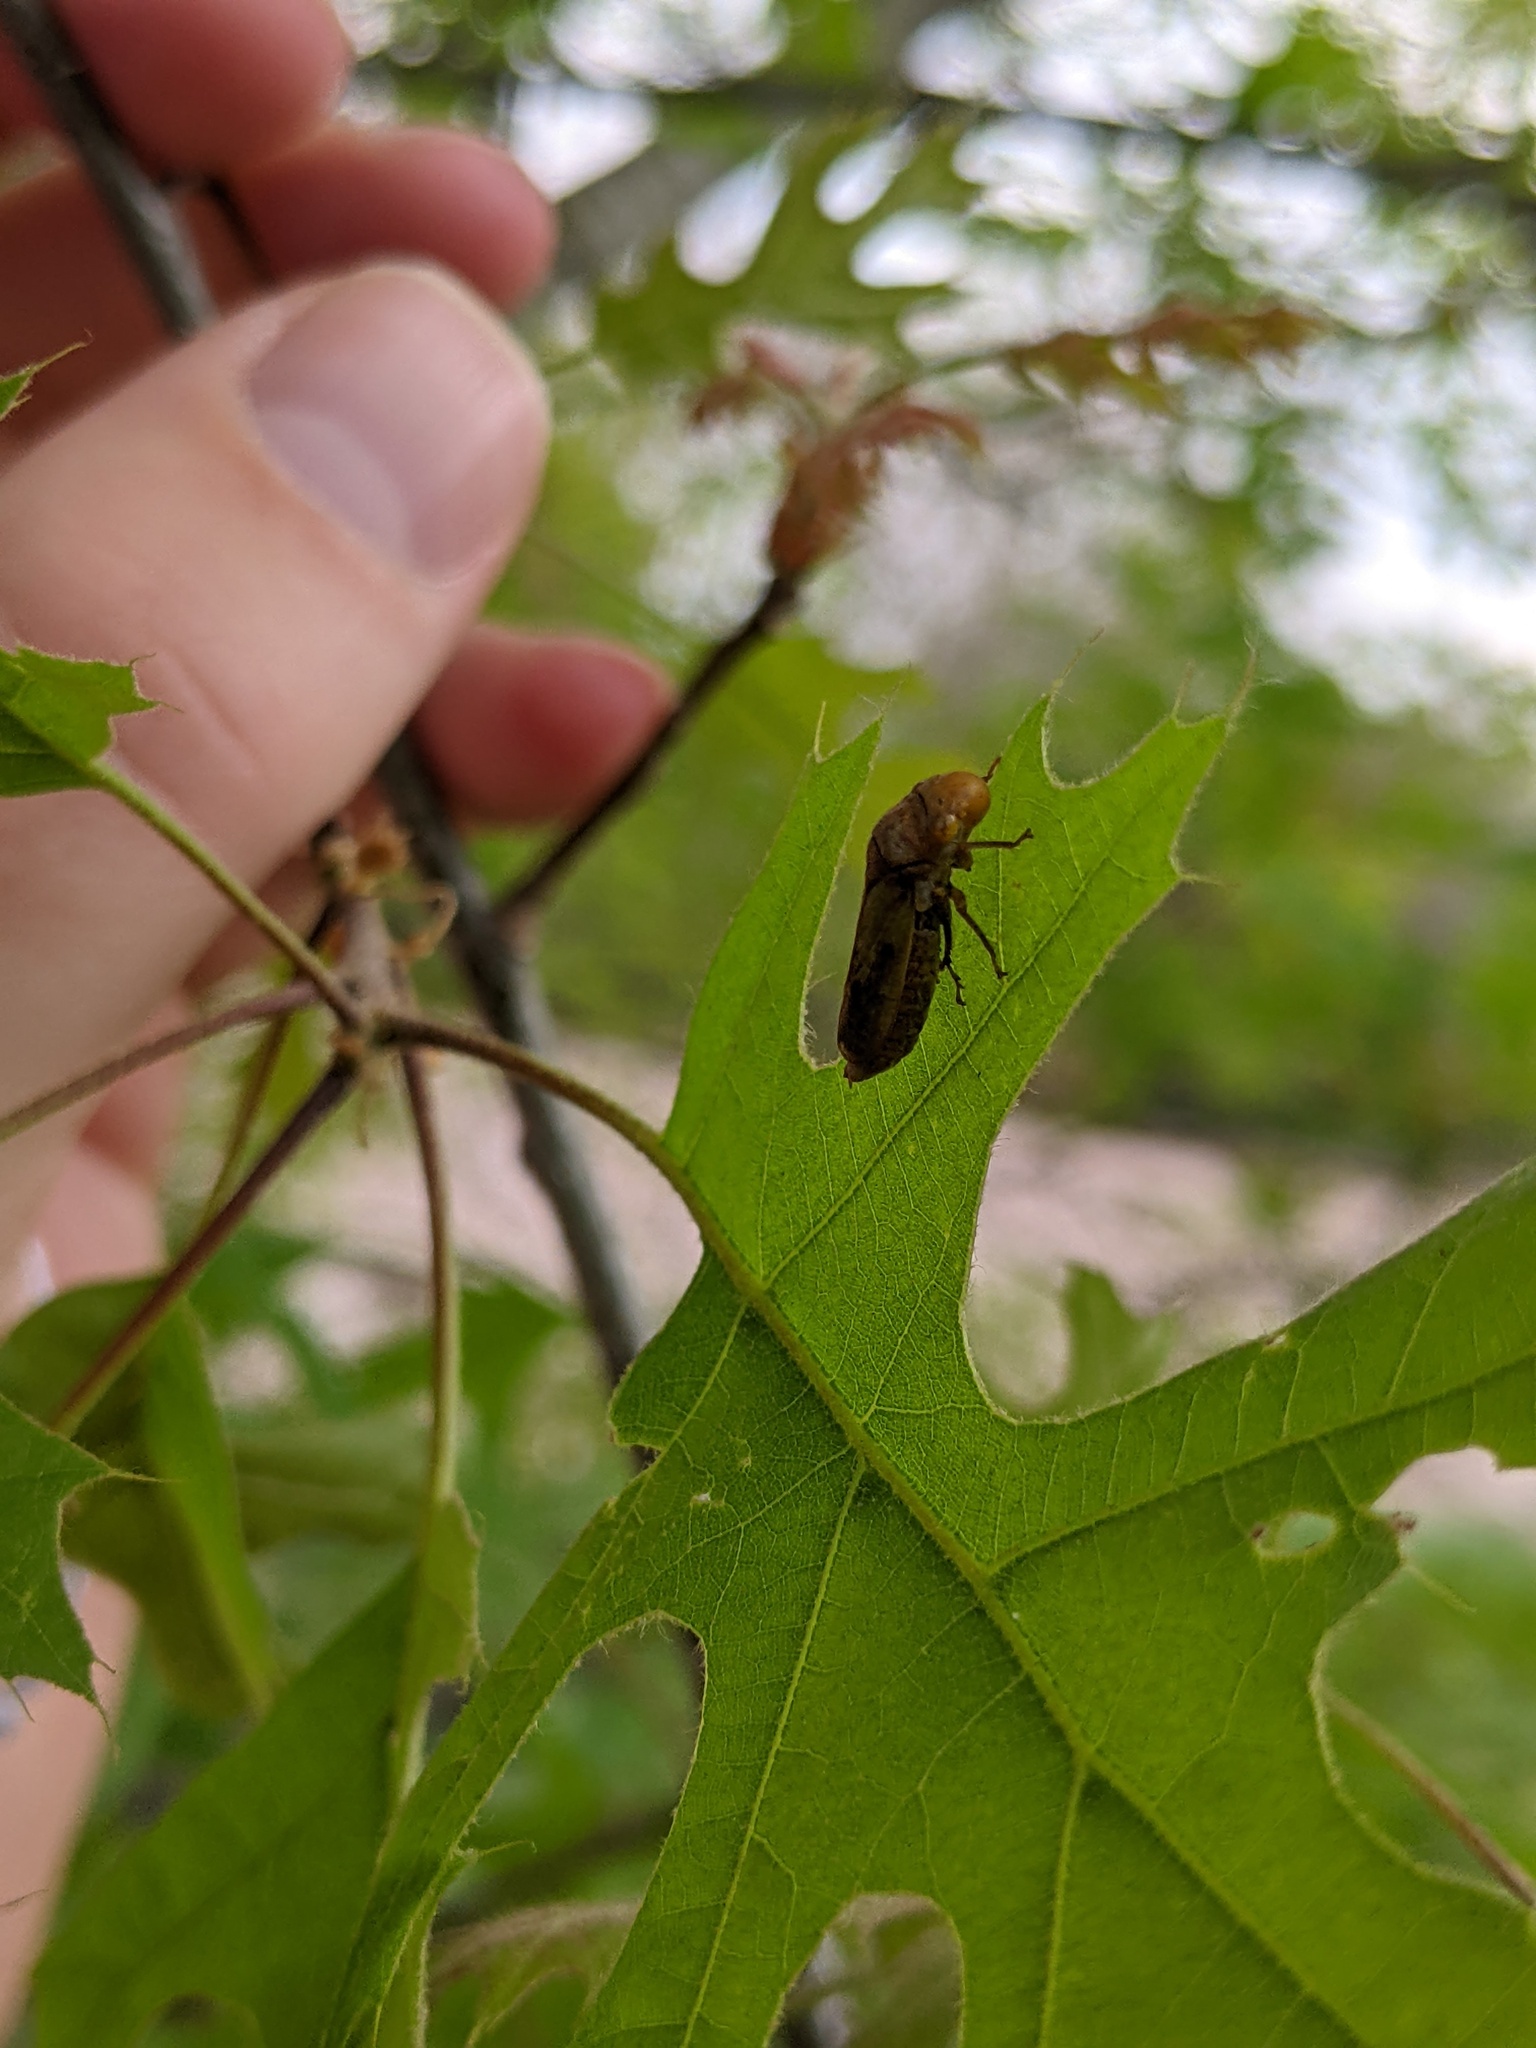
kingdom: Animalia
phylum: Arthropoda
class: Insecta
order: Hemiptera
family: Cicadellidae
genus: Oncometopia
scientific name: Oncometopia hamiltoni
